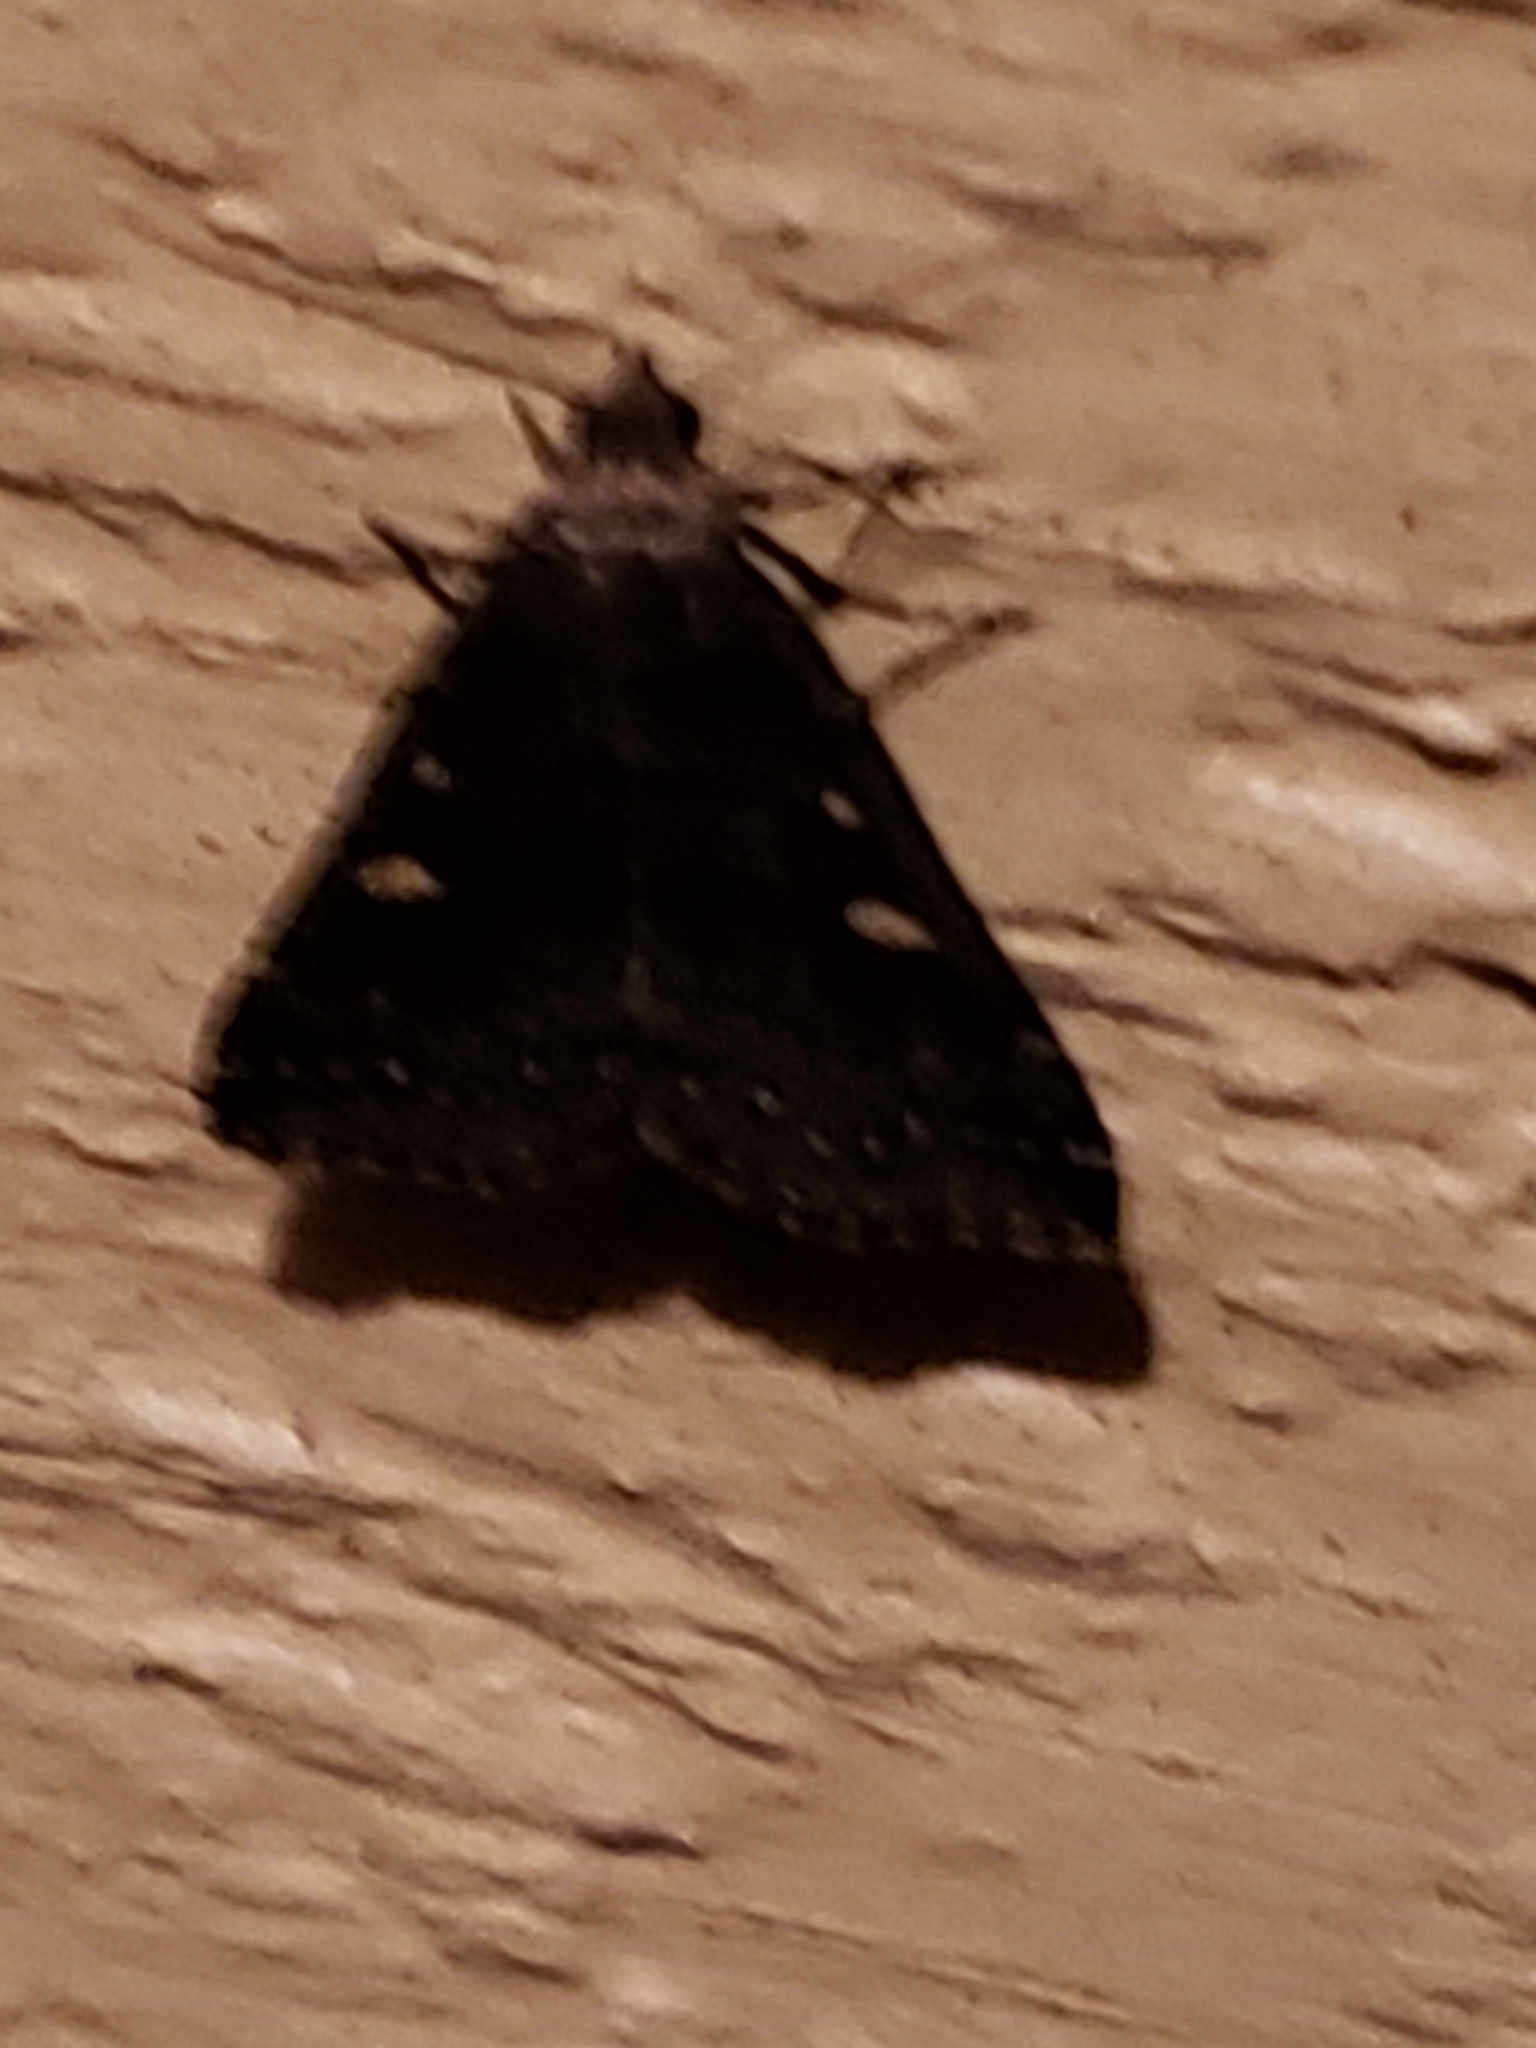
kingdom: Animalia
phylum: Arthropoda
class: Insecta
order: Lepidoptera
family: Erebidae
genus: Tetanolita
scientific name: Tetanolita mynesalis
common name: Smoky tetanolita moth
